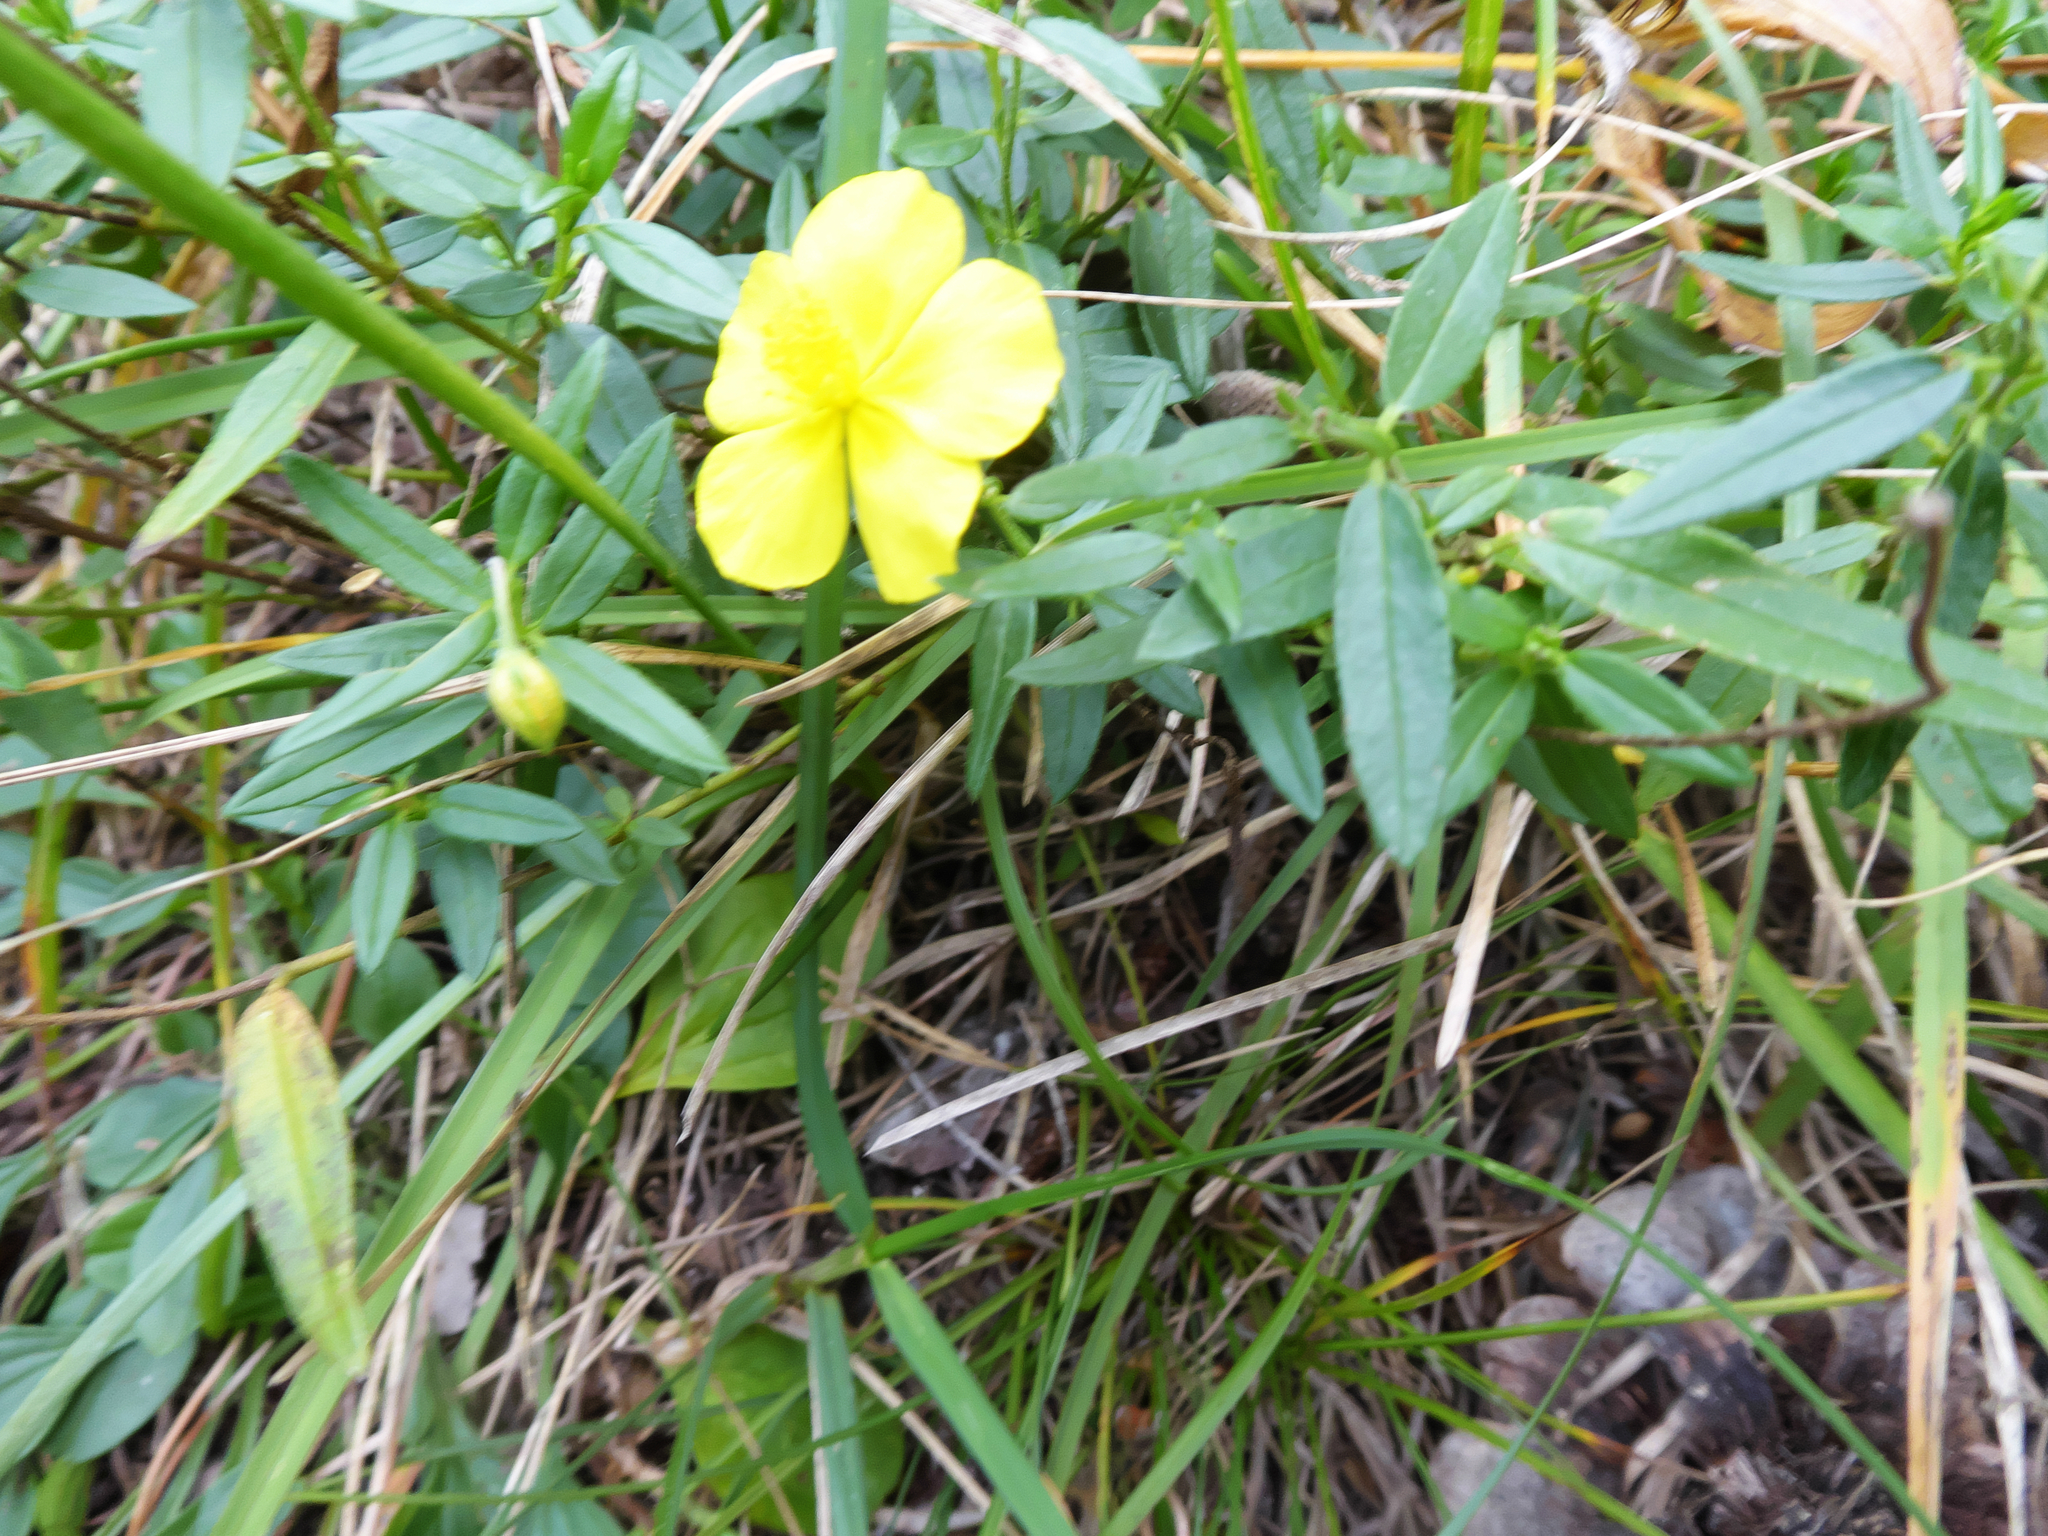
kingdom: Plantae
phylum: Tracheophyta
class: Magnoliopsida
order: Malvales
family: Cistaceae
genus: Helianthemum
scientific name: Helianthemum nummularium
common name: Common rock-rose
